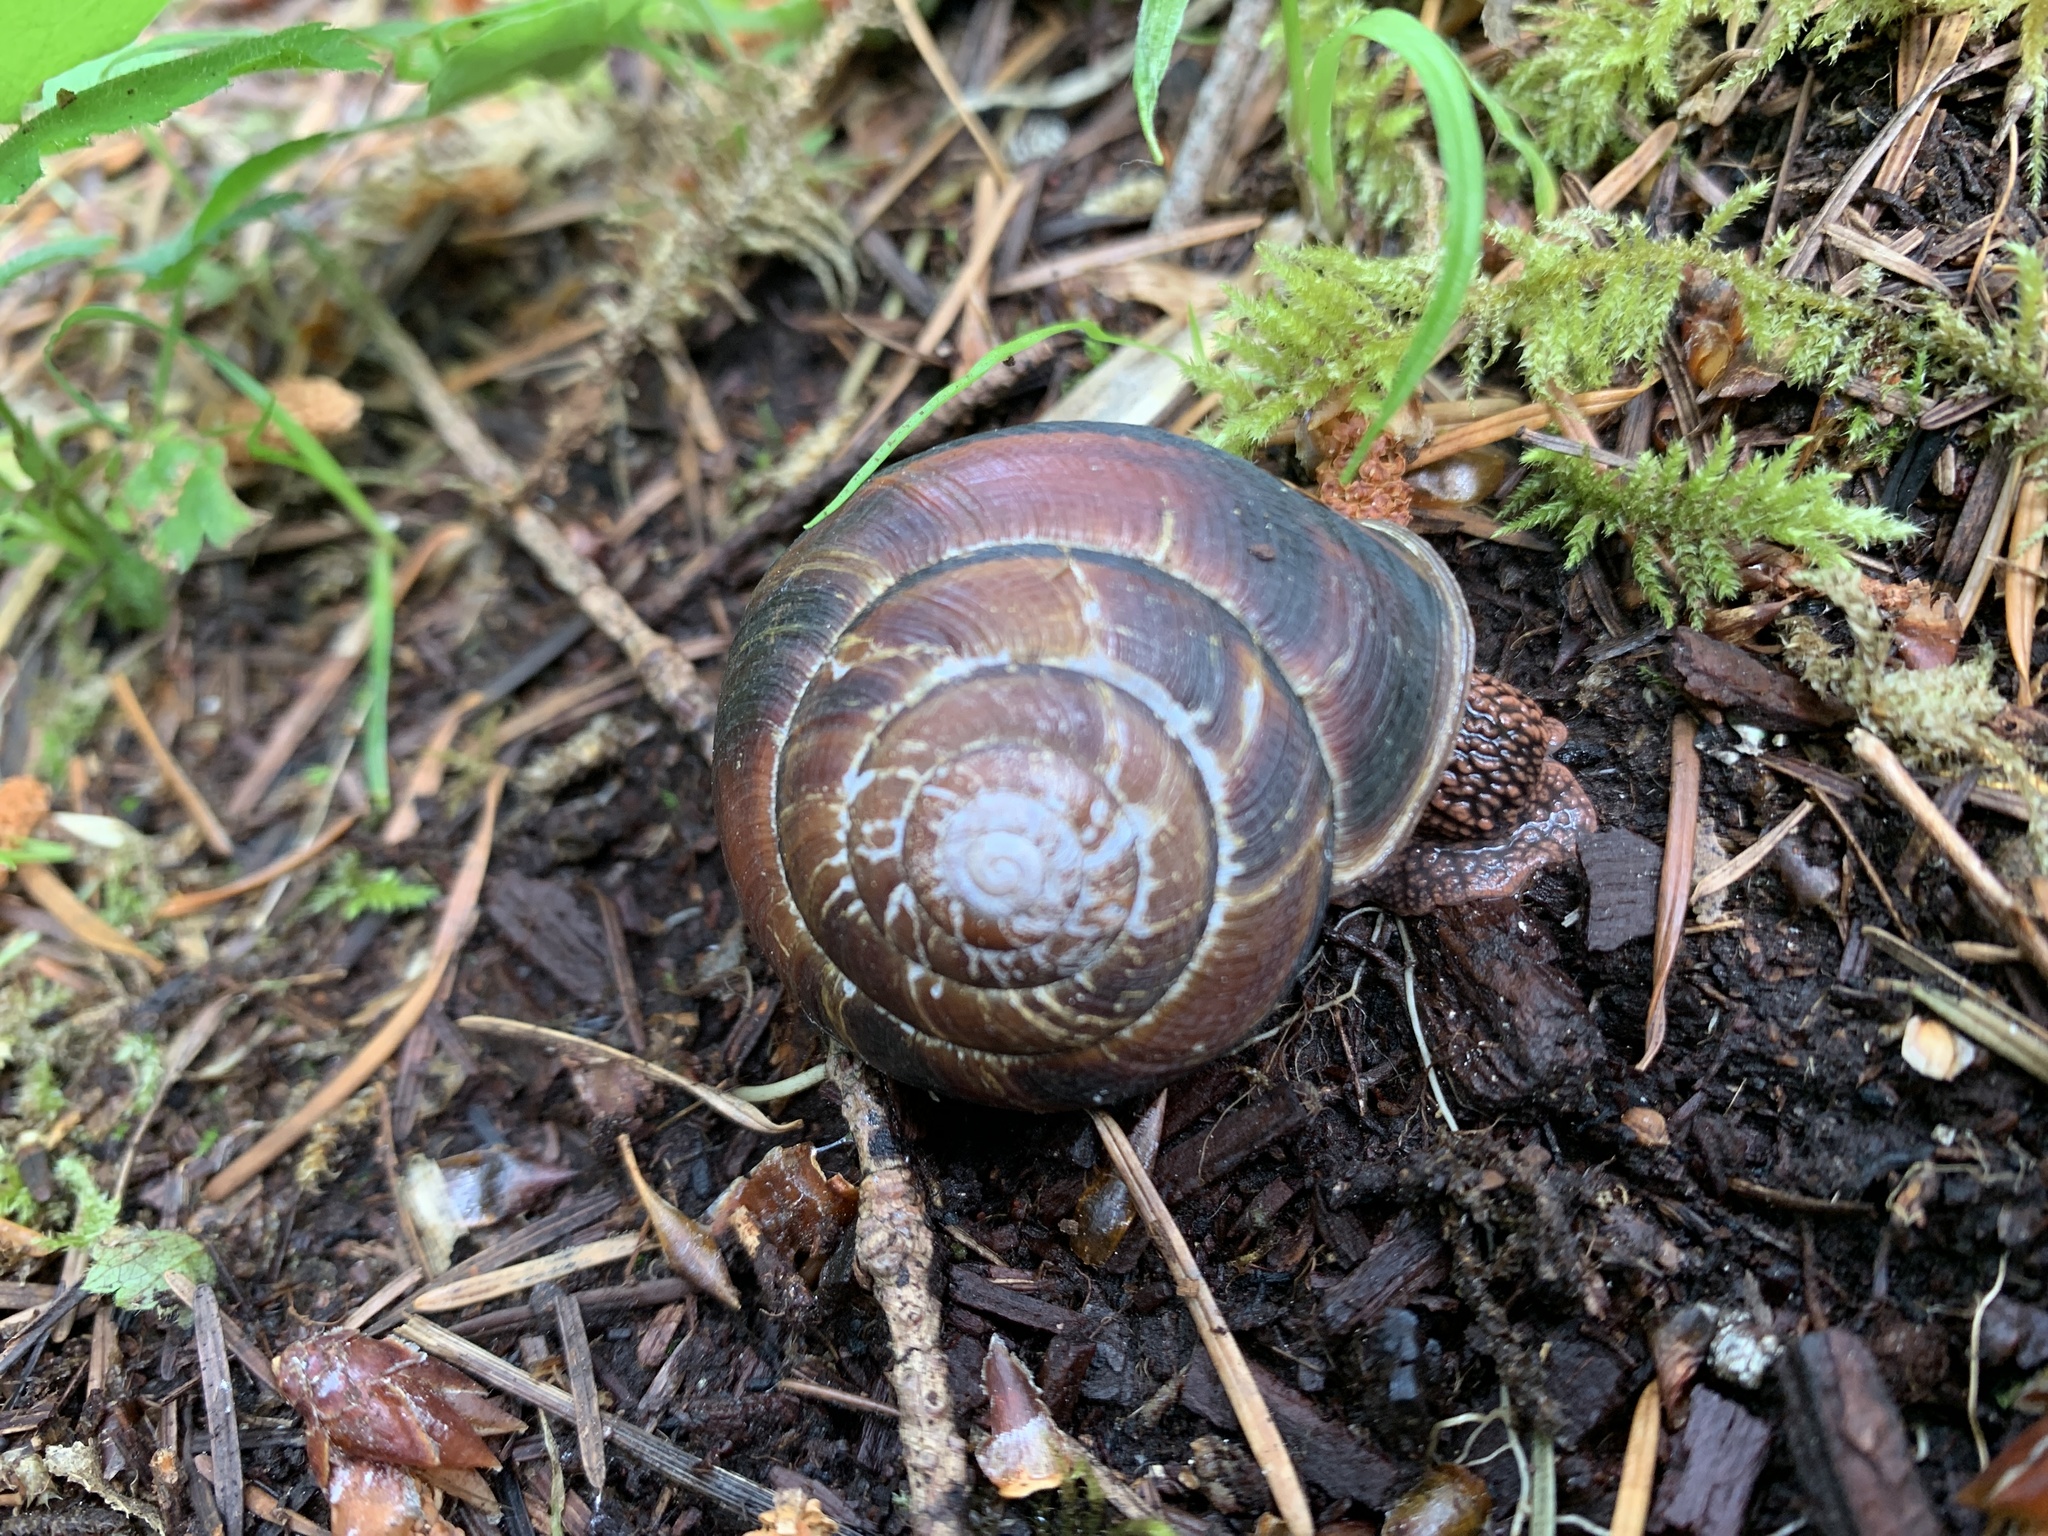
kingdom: Animalia
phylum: Mollusca
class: Gastropoda
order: Stylommatophora
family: Xanthonychidae
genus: Monadenia
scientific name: Monadenia fidelis
